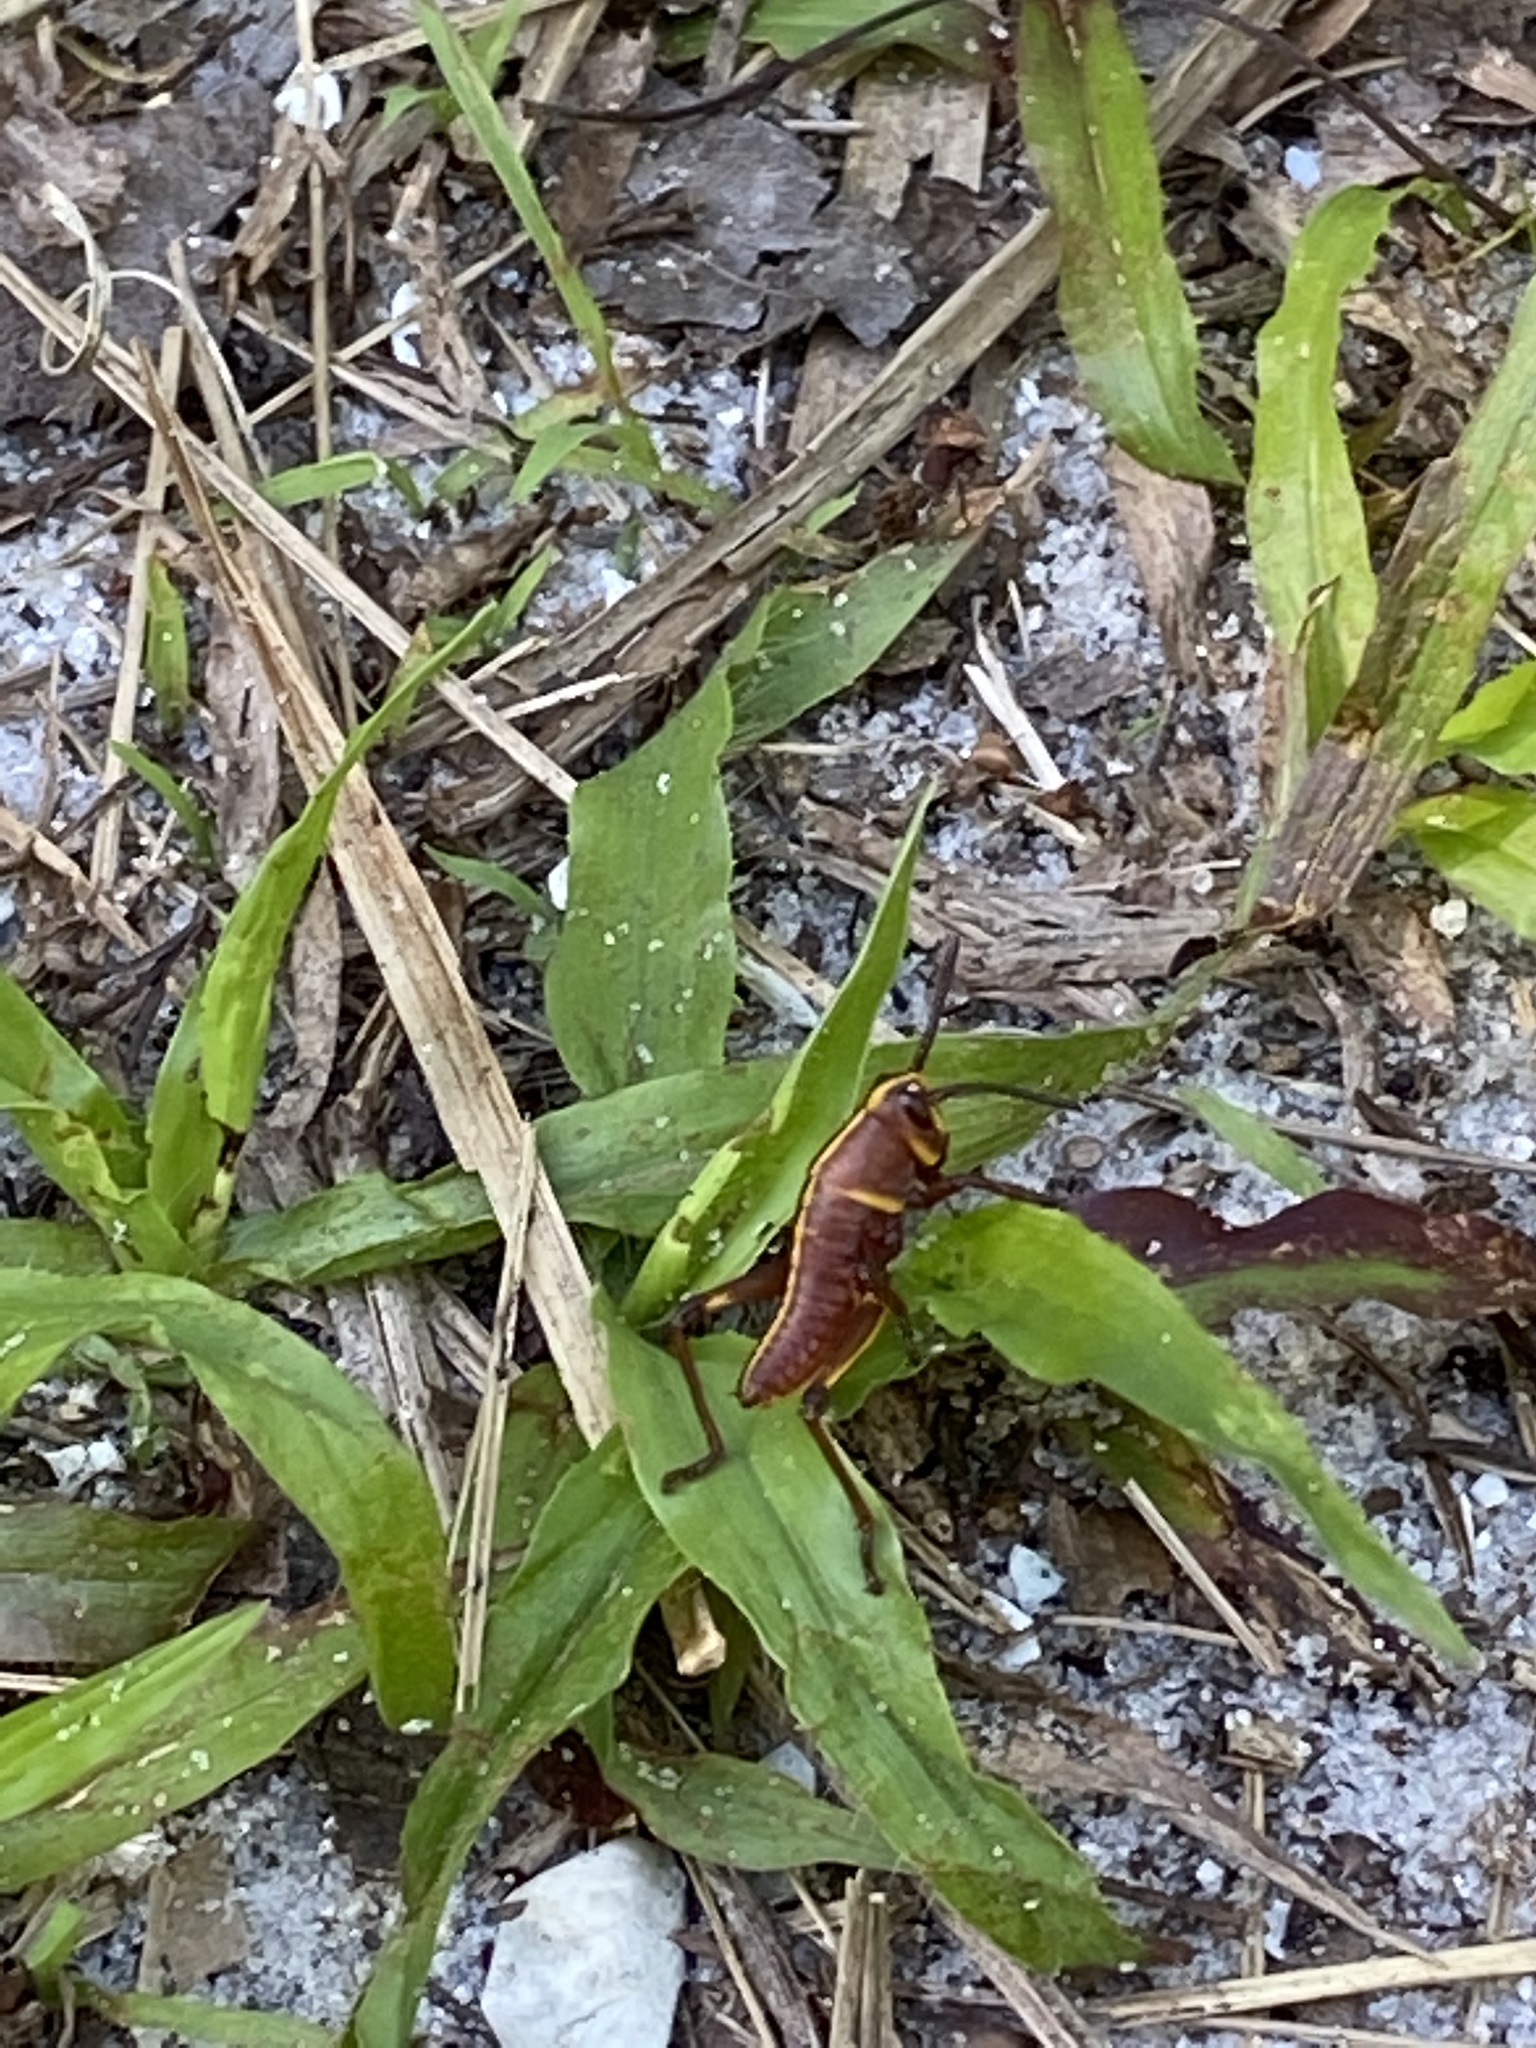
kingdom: Animalia
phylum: Arthropoda
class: Insecta
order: Orthoptera
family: Romaleidae
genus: Romalea
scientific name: Romalea microptera
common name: Eastern lubber grasshopper
